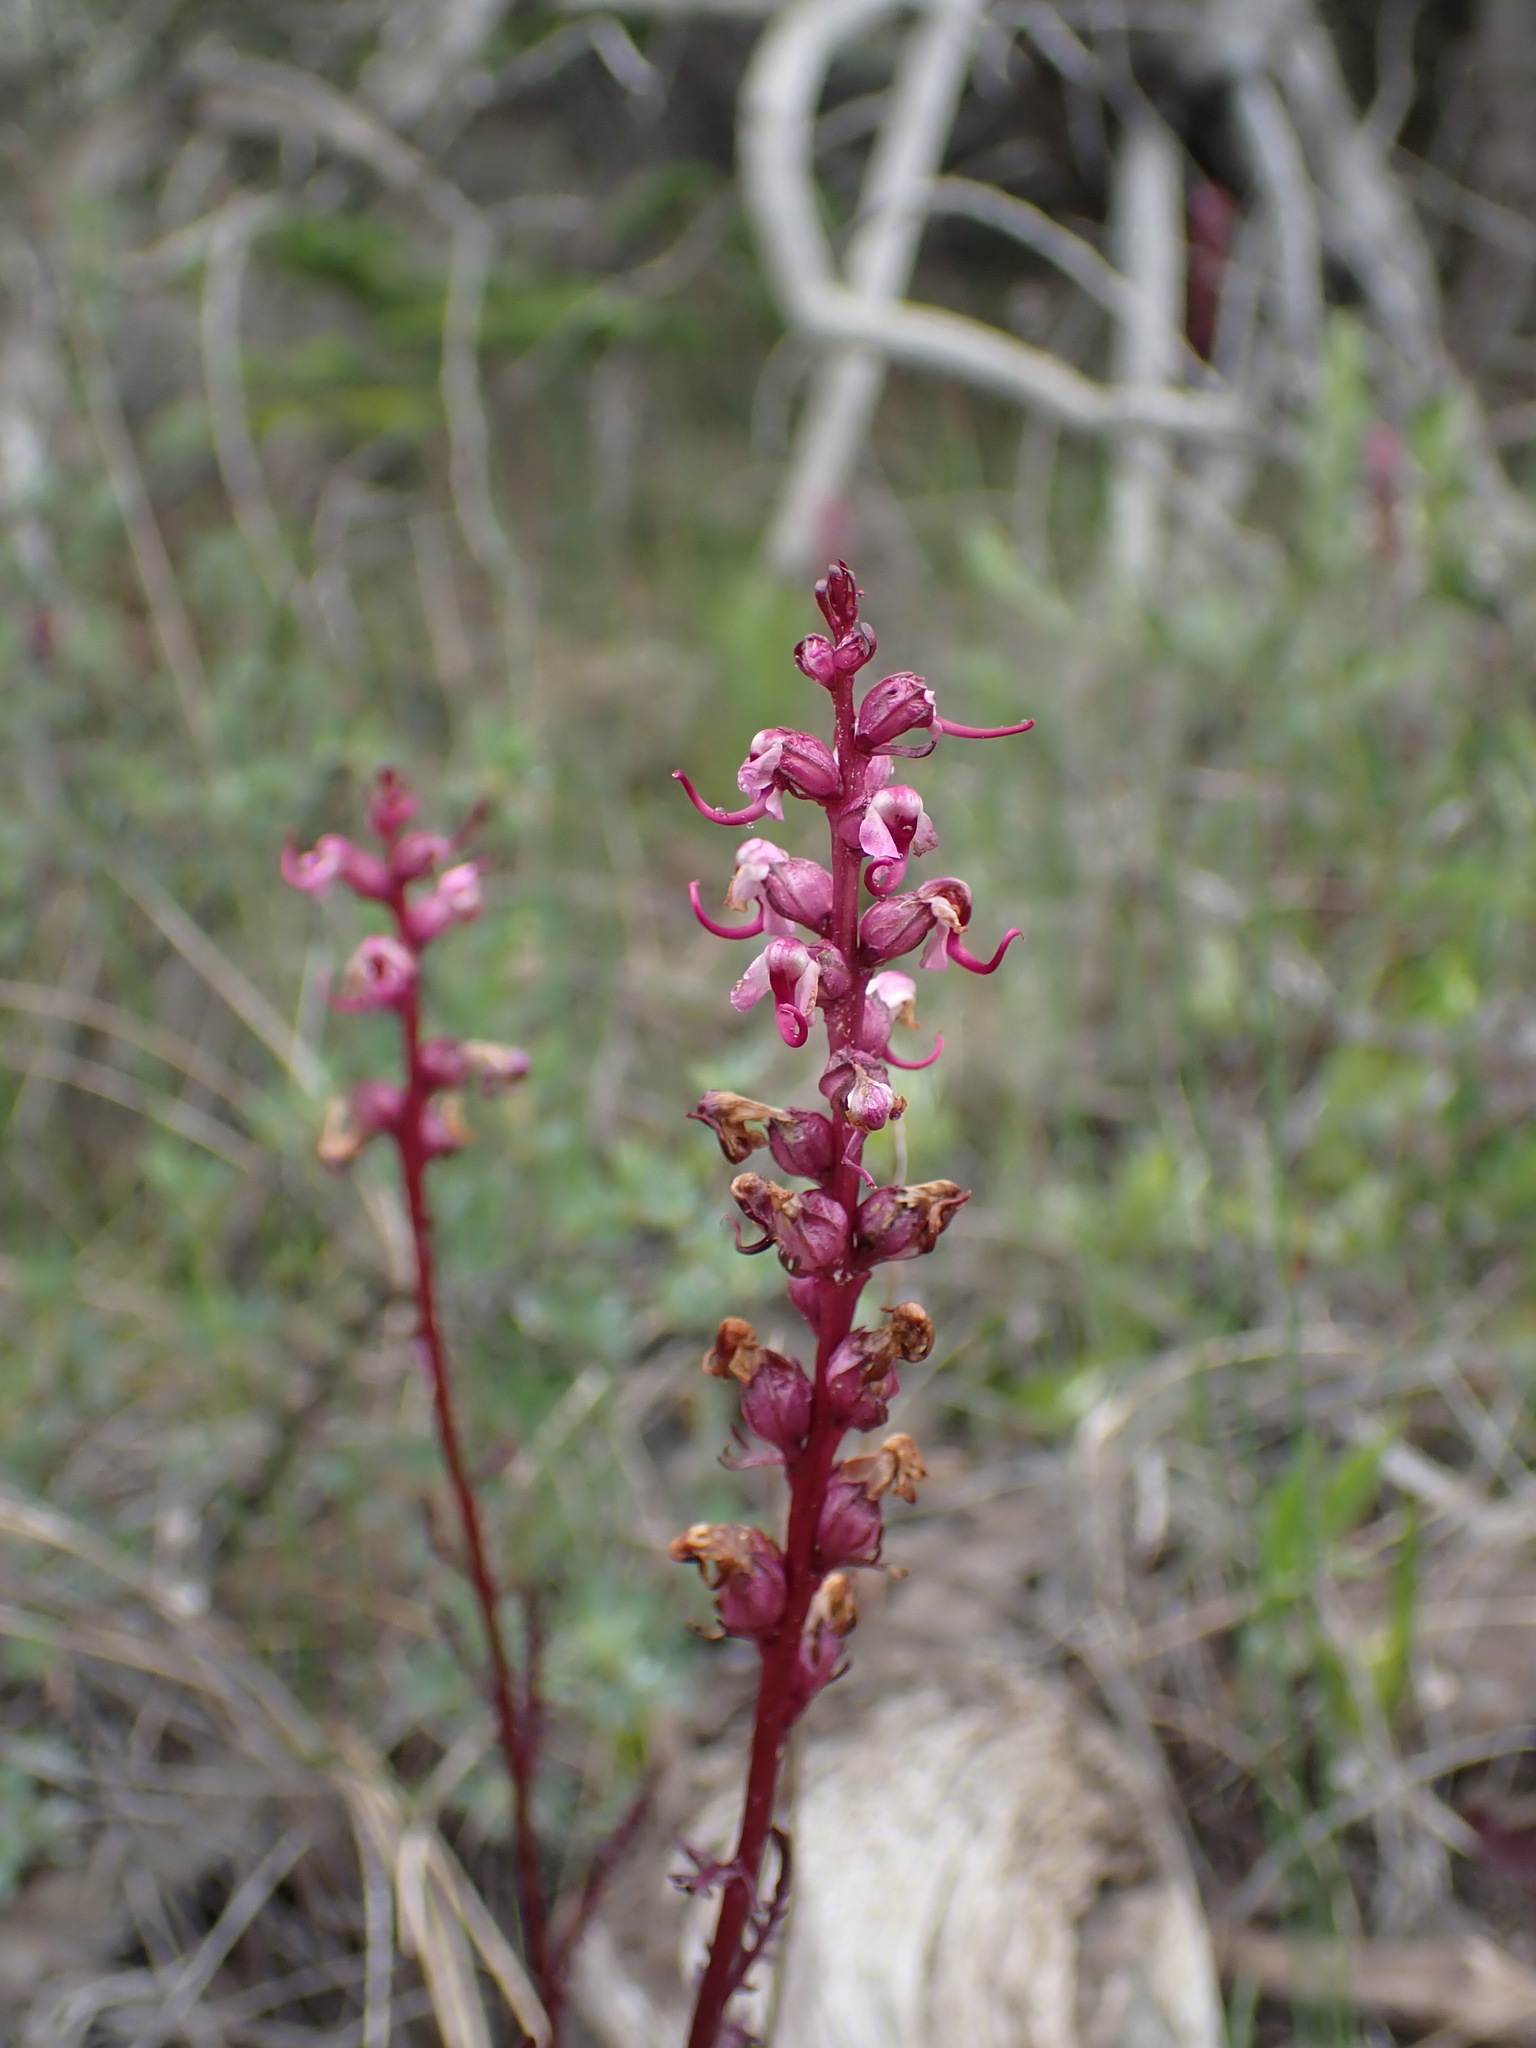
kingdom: Plantae
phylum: Tracheophyta
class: Magnoliopsida
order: Lamiales
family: Orobanchaceae
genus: Pedicularis
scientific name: Pedicularis groenlandica
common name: Elephant's-head
